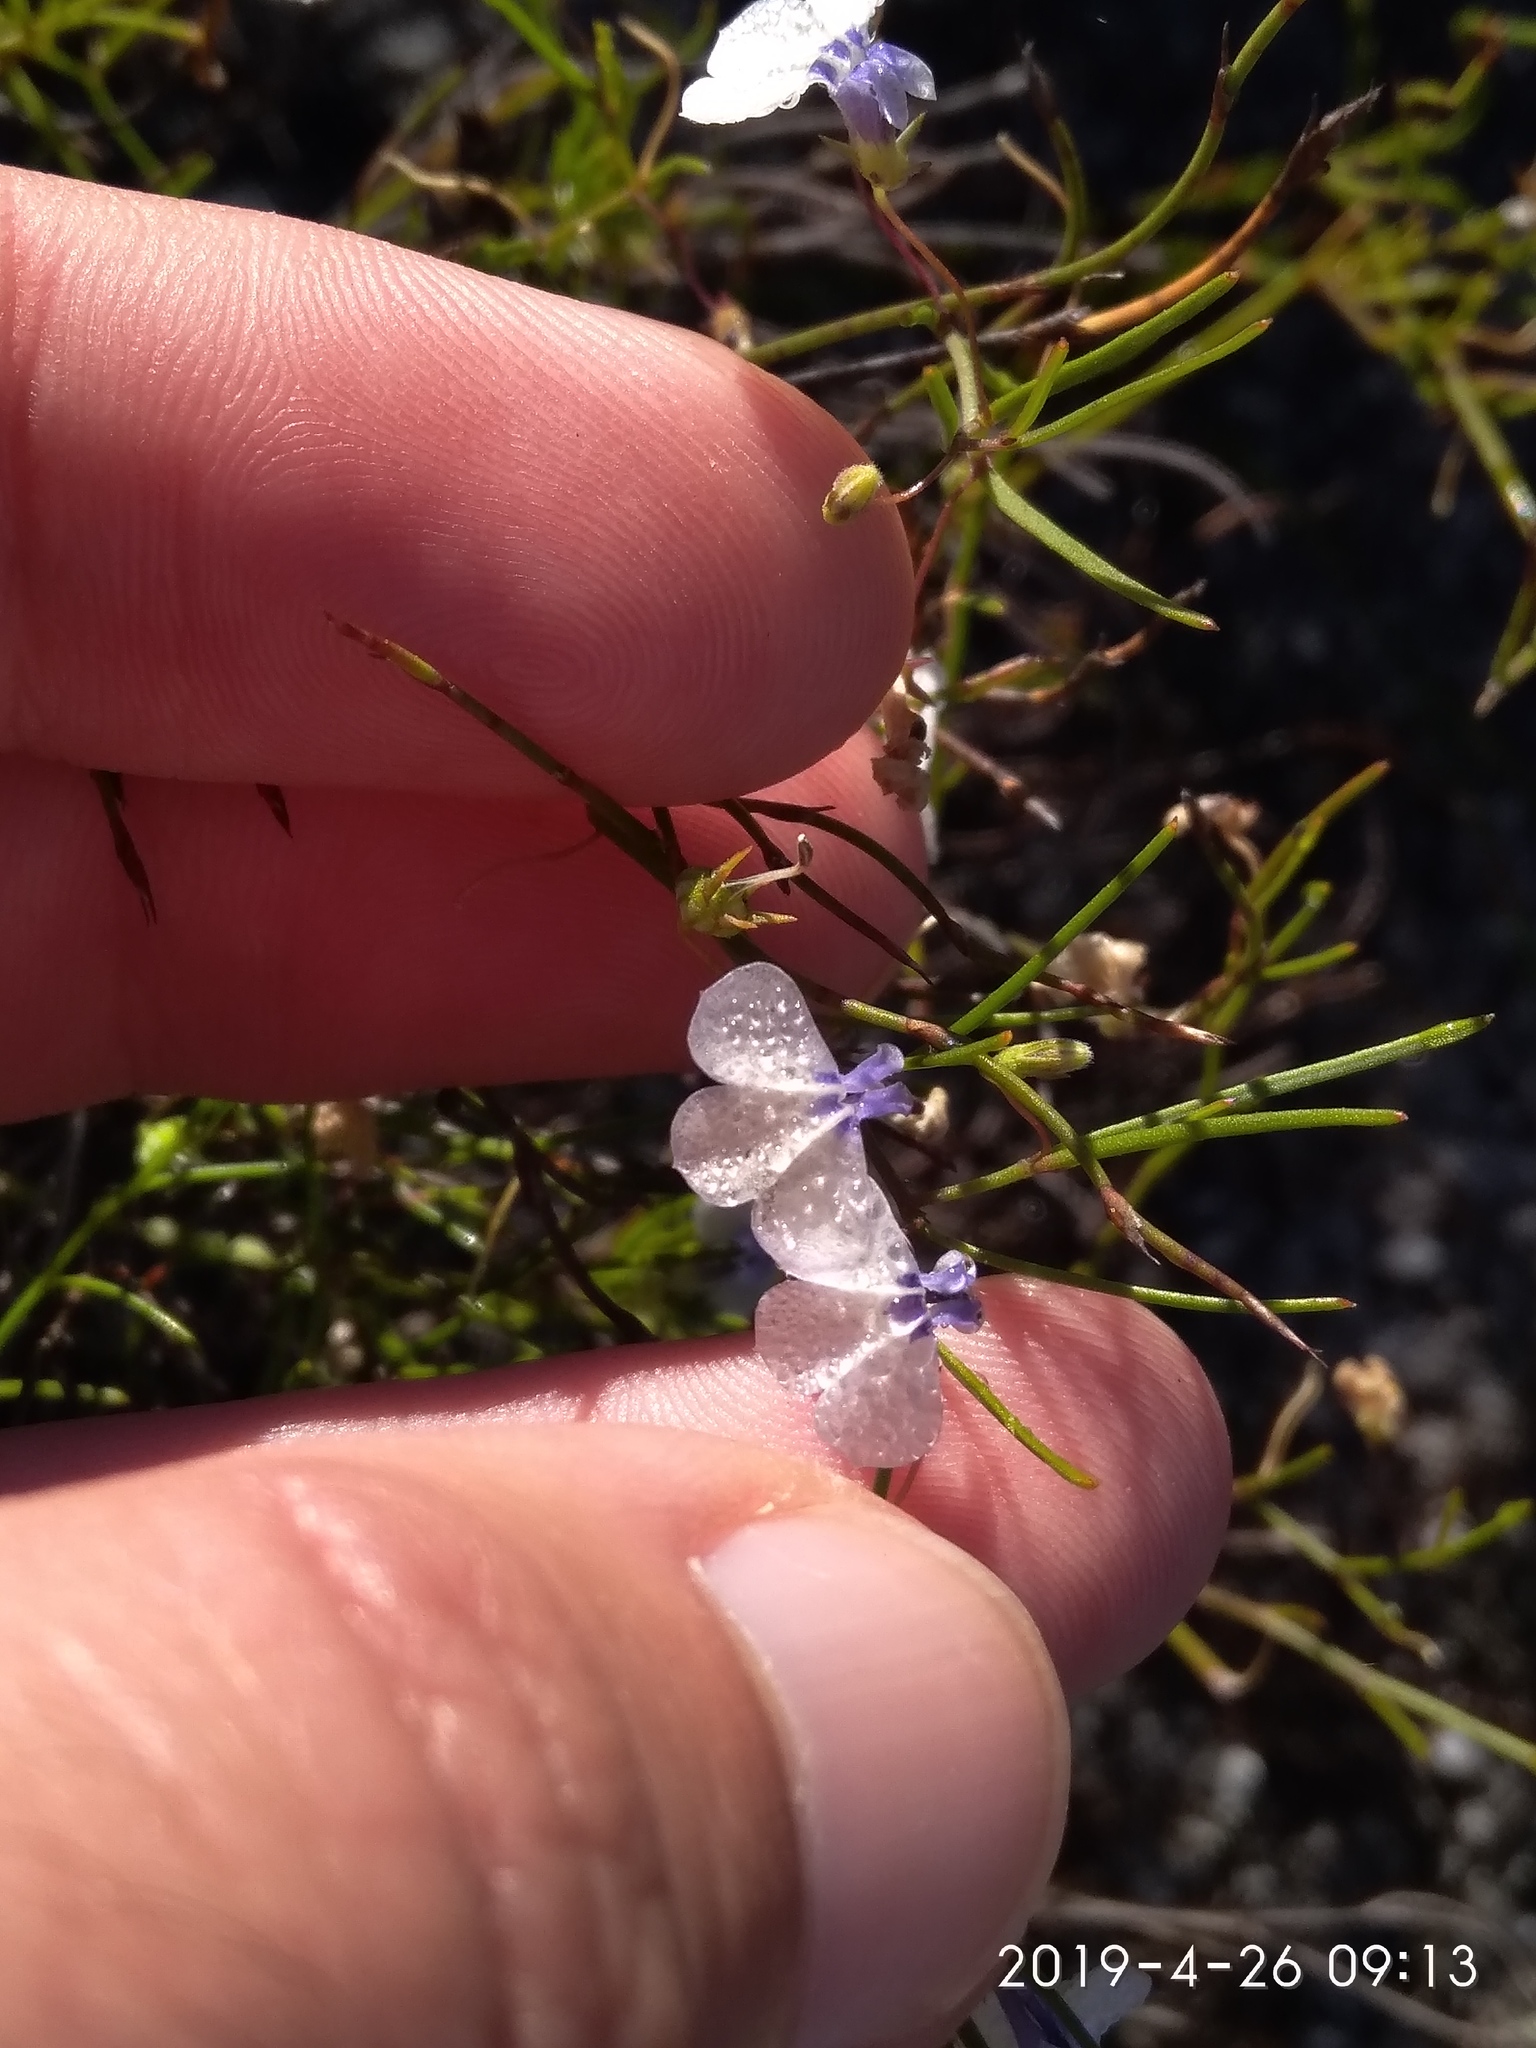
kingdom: Plantae
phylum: Tracheophyta
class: Magnoliopsida
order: Asterales
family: Campanulaceae
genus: Lobelia
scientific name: Lobelia setacea
